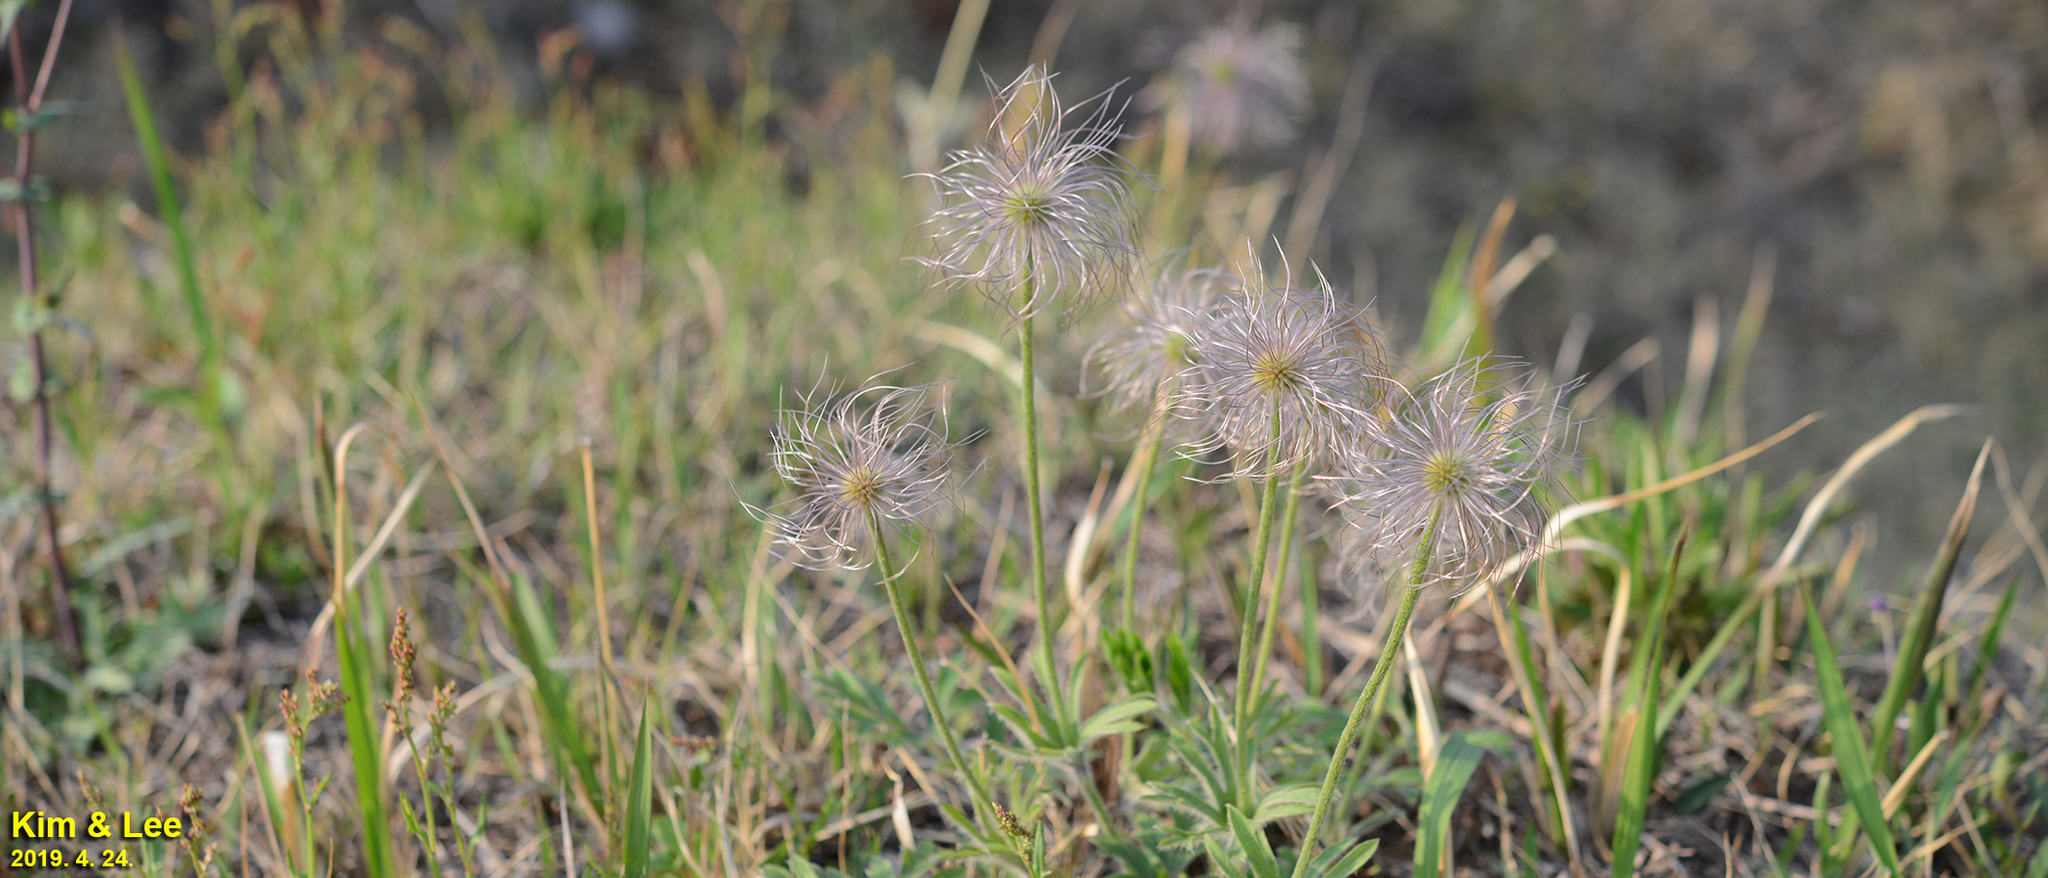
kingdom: Plantae
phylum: Tracheophyta
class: Magnoliopsida
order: Ranunculales
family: Ranunculaceae
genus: Pulsatilla
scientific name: Pulsatilla cernua
